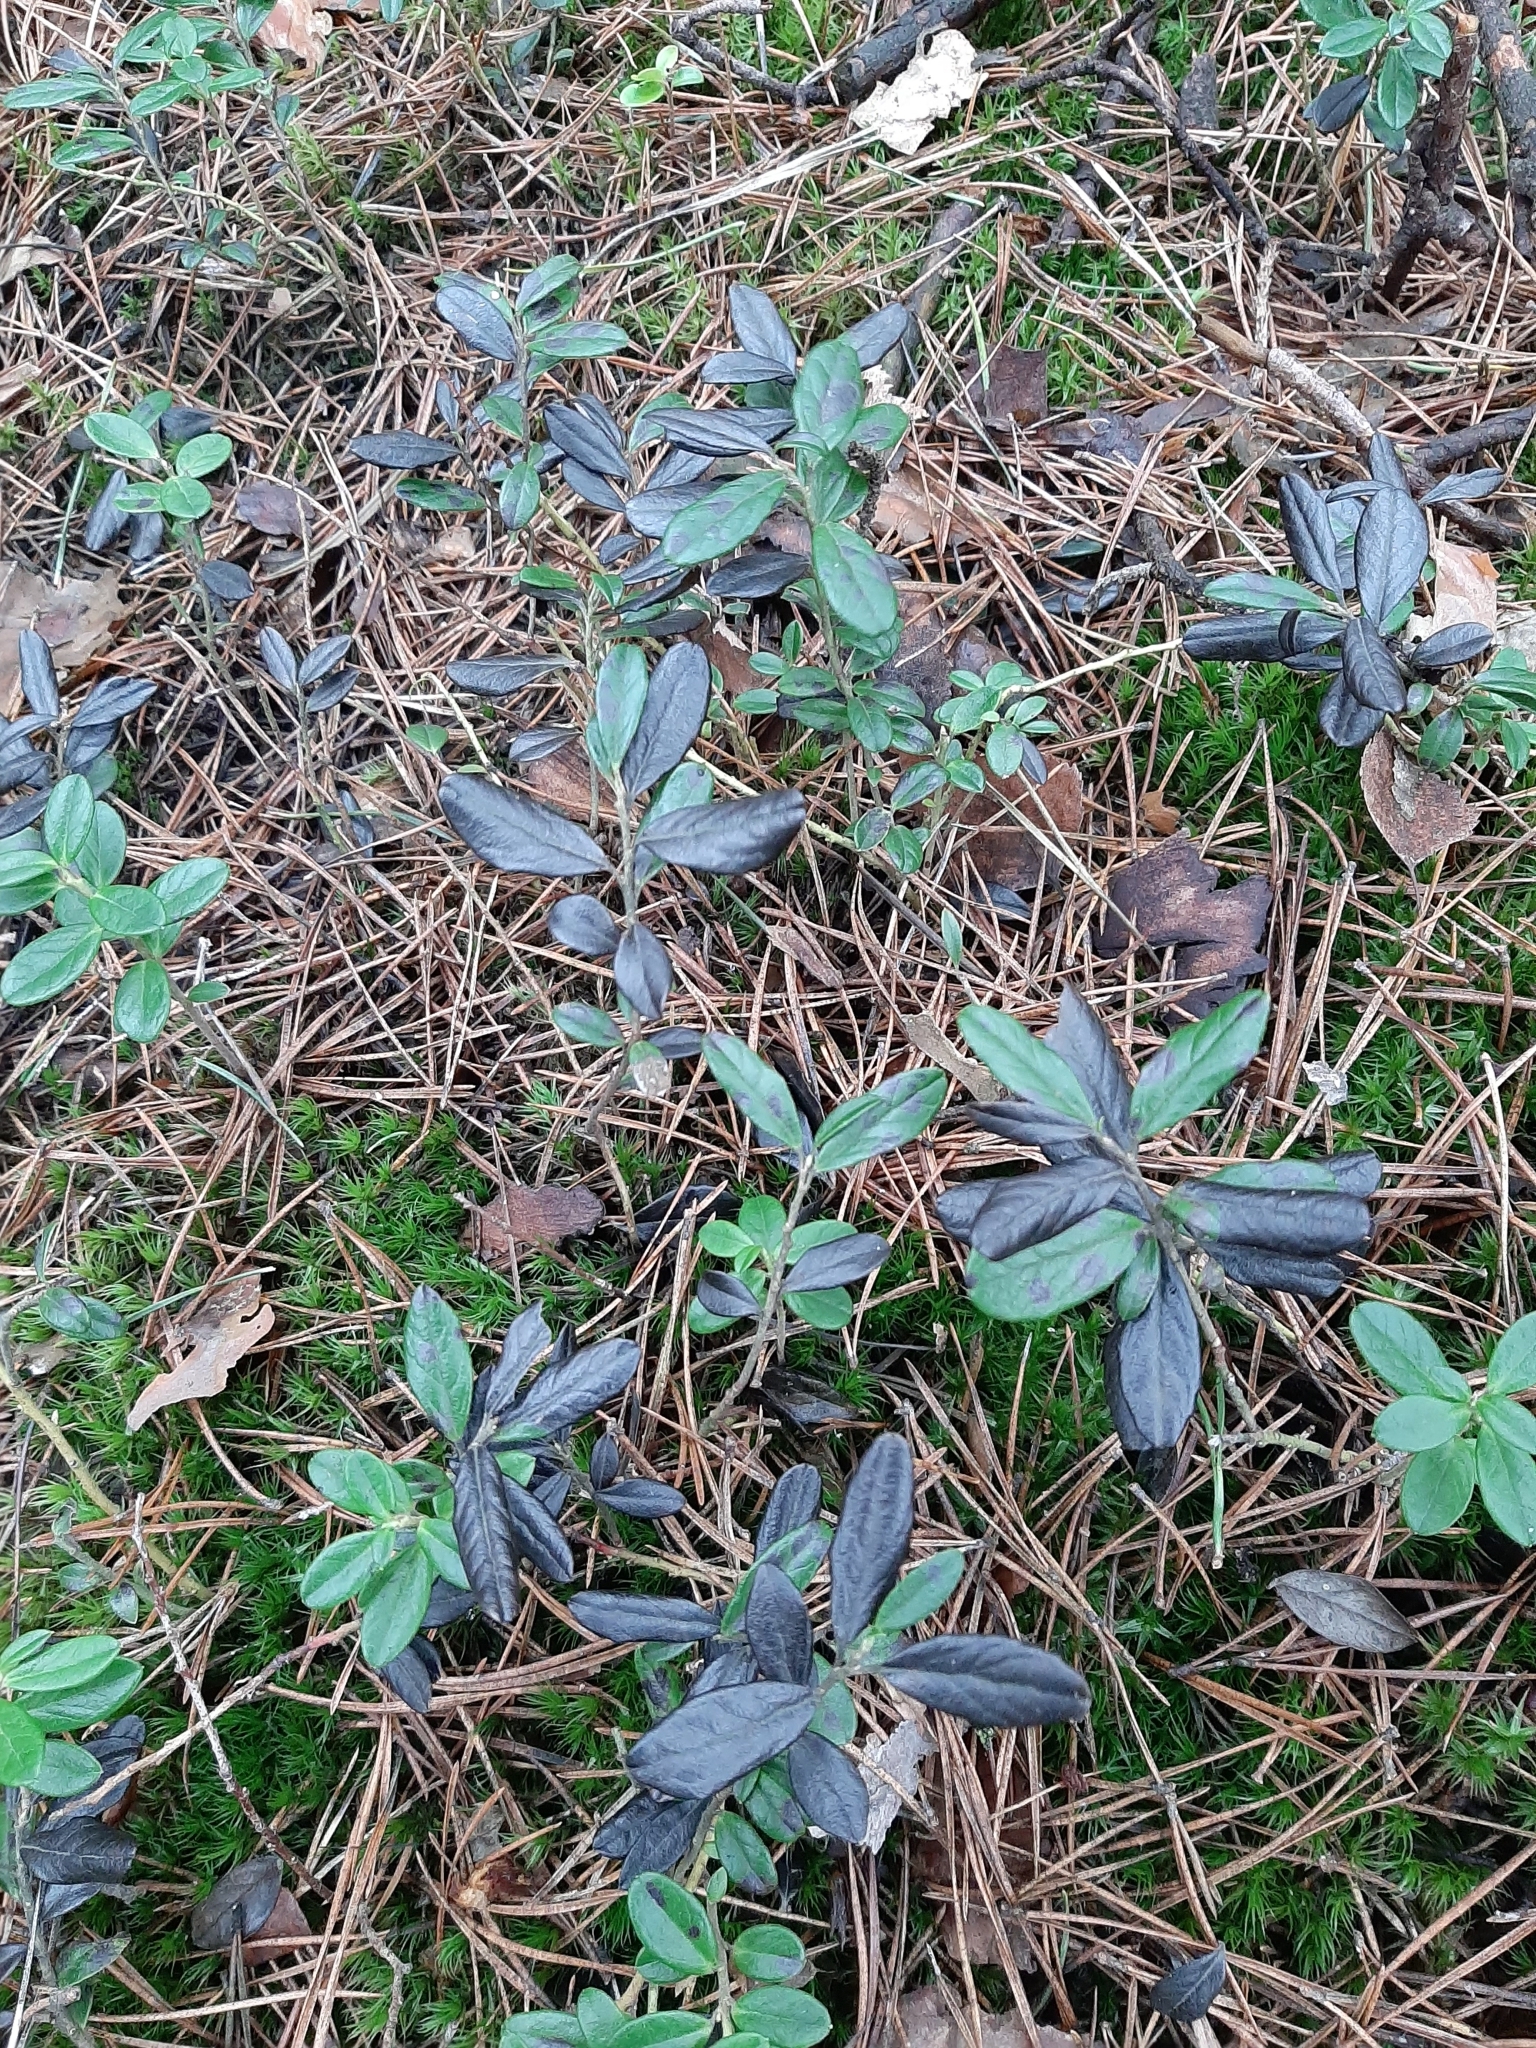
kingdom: Plantae
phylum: Tracheophyta
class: Magnoliopsida
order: Ericales
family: Ericaceae
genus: Vaccinium
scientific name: Vaccinium vitis-idaea
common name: Cowberry
